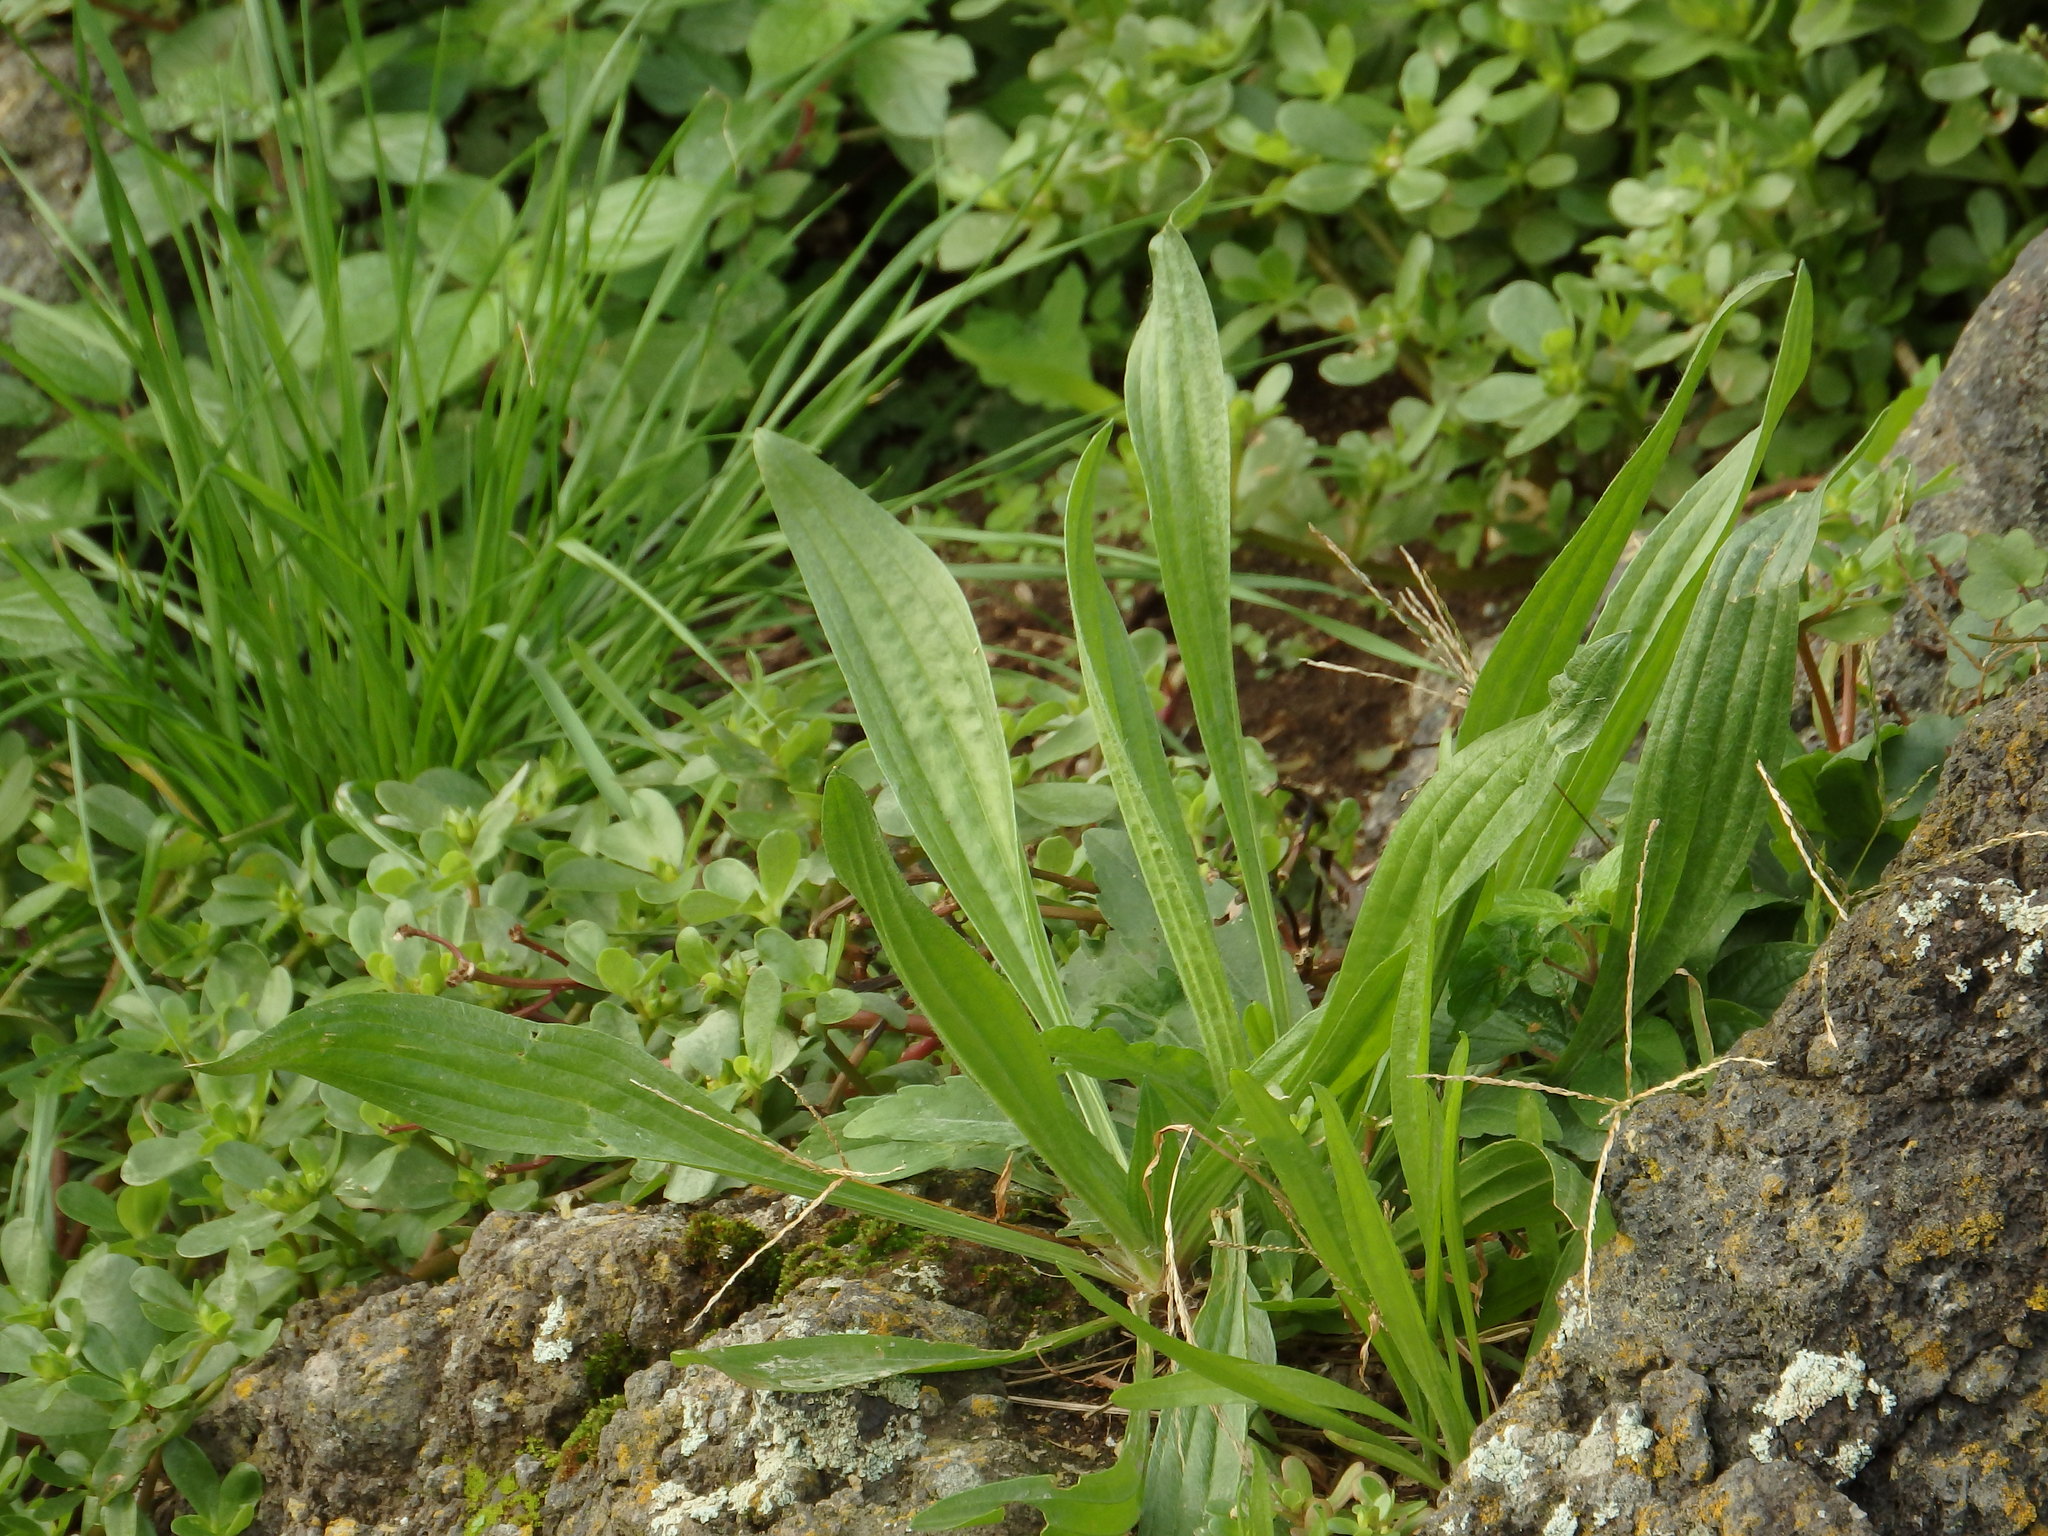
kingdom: Plantae
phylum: Tracheophyta
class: Magnoliopsida
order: Lamiales
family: Plantaginaceae
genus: Plantago
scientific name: Plantago lanceolata
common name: Ribwort plantain
